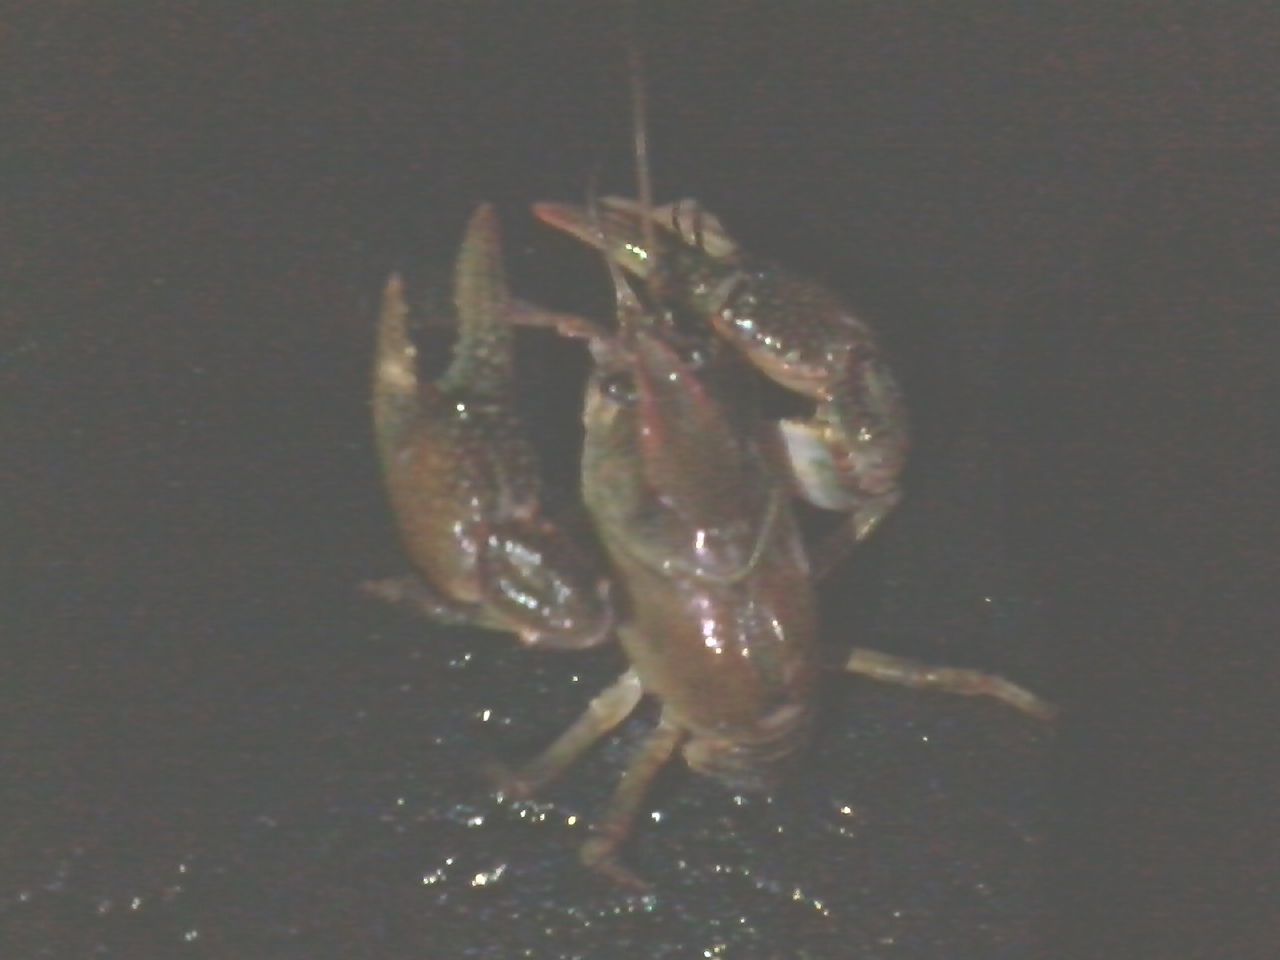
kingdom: Animalia
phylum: Arthropoda
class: Malacostraca
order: Decapoda
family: Cambaridae
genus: Lacunicambarus
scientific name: Lacunicambarus polychromatus
